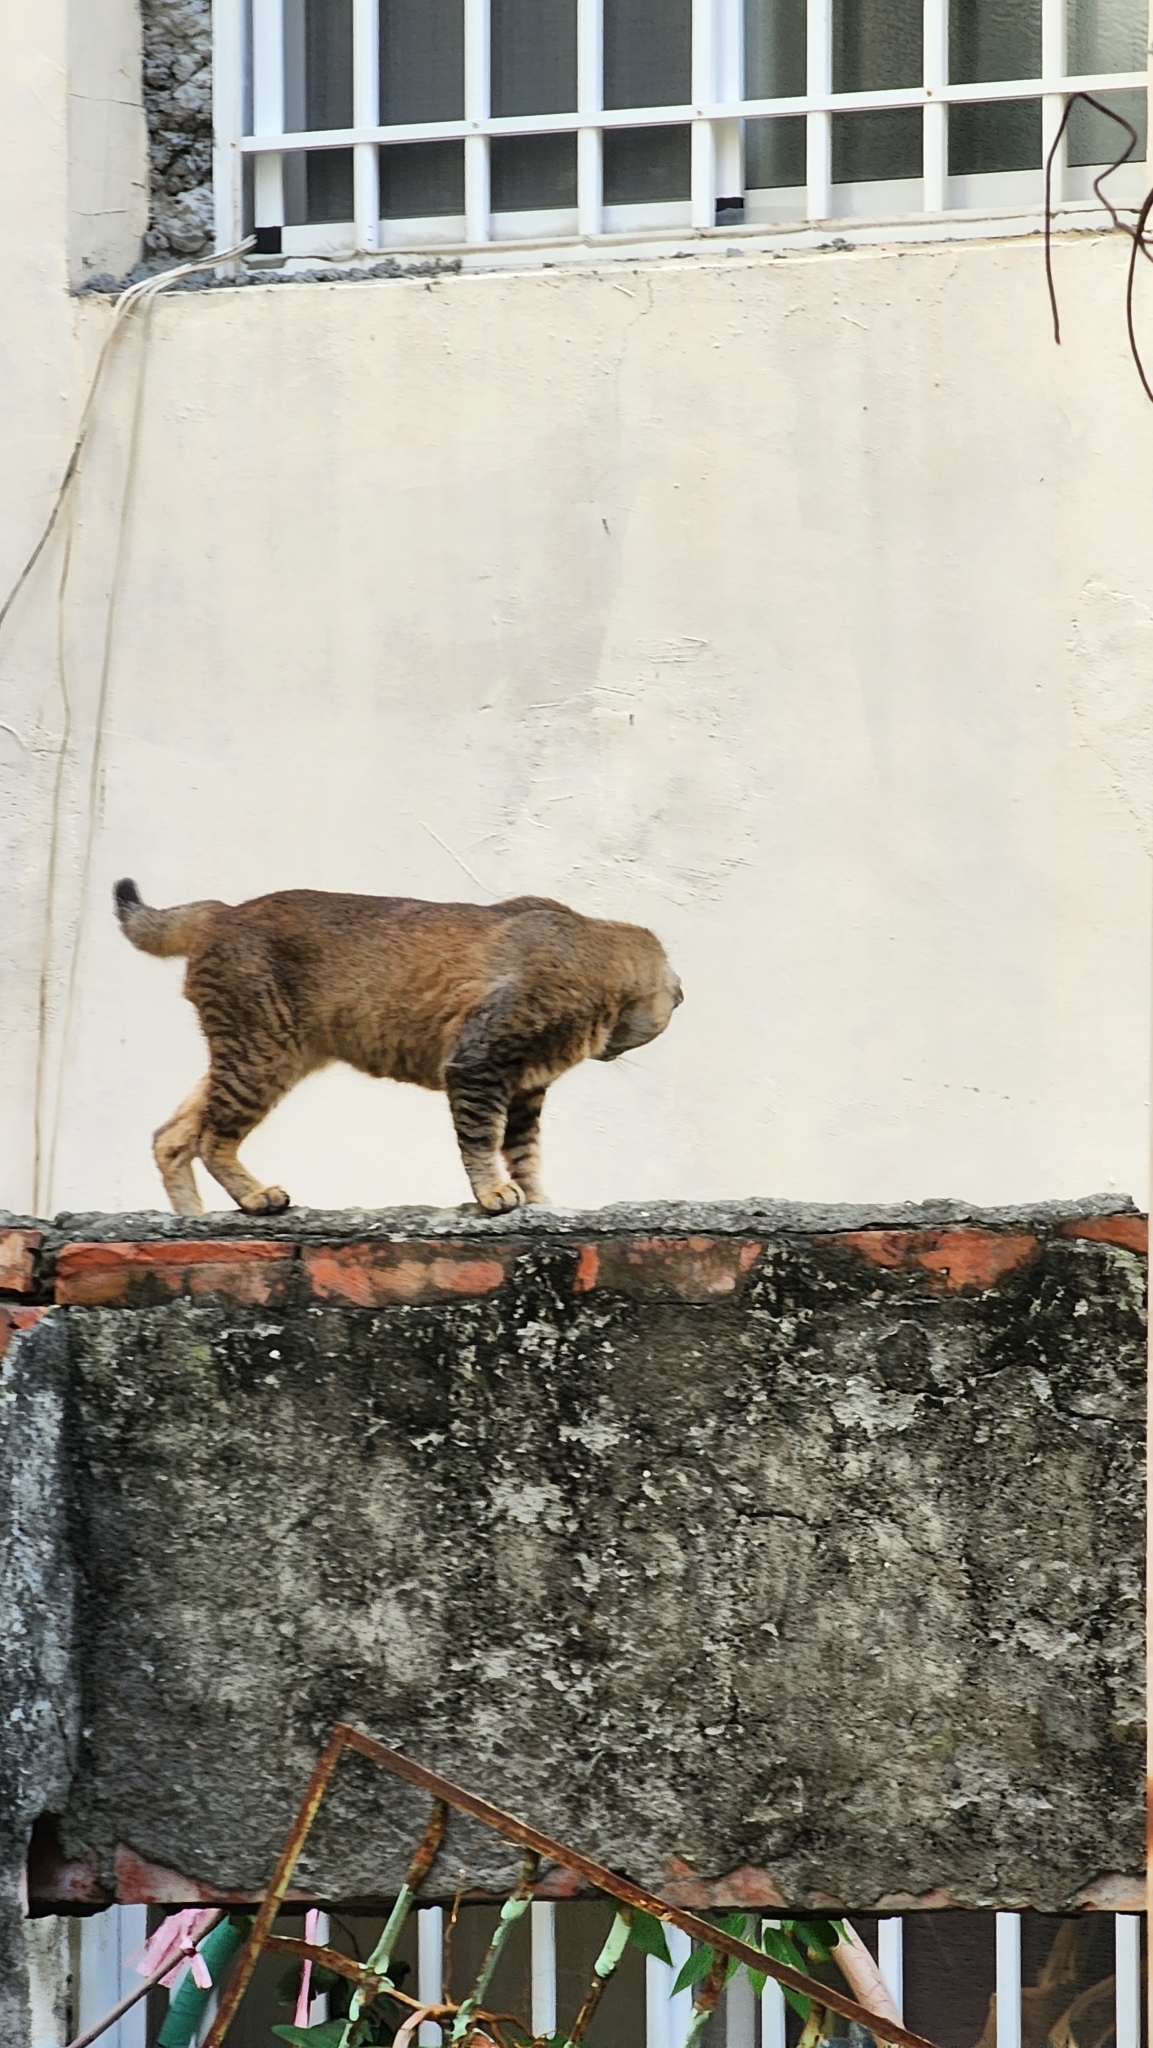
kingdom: Animalia
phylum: Chordata
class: Mammalia
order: Carnivora
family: Felidae
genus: Felis
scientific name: Felis catus
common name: Domestic cat
